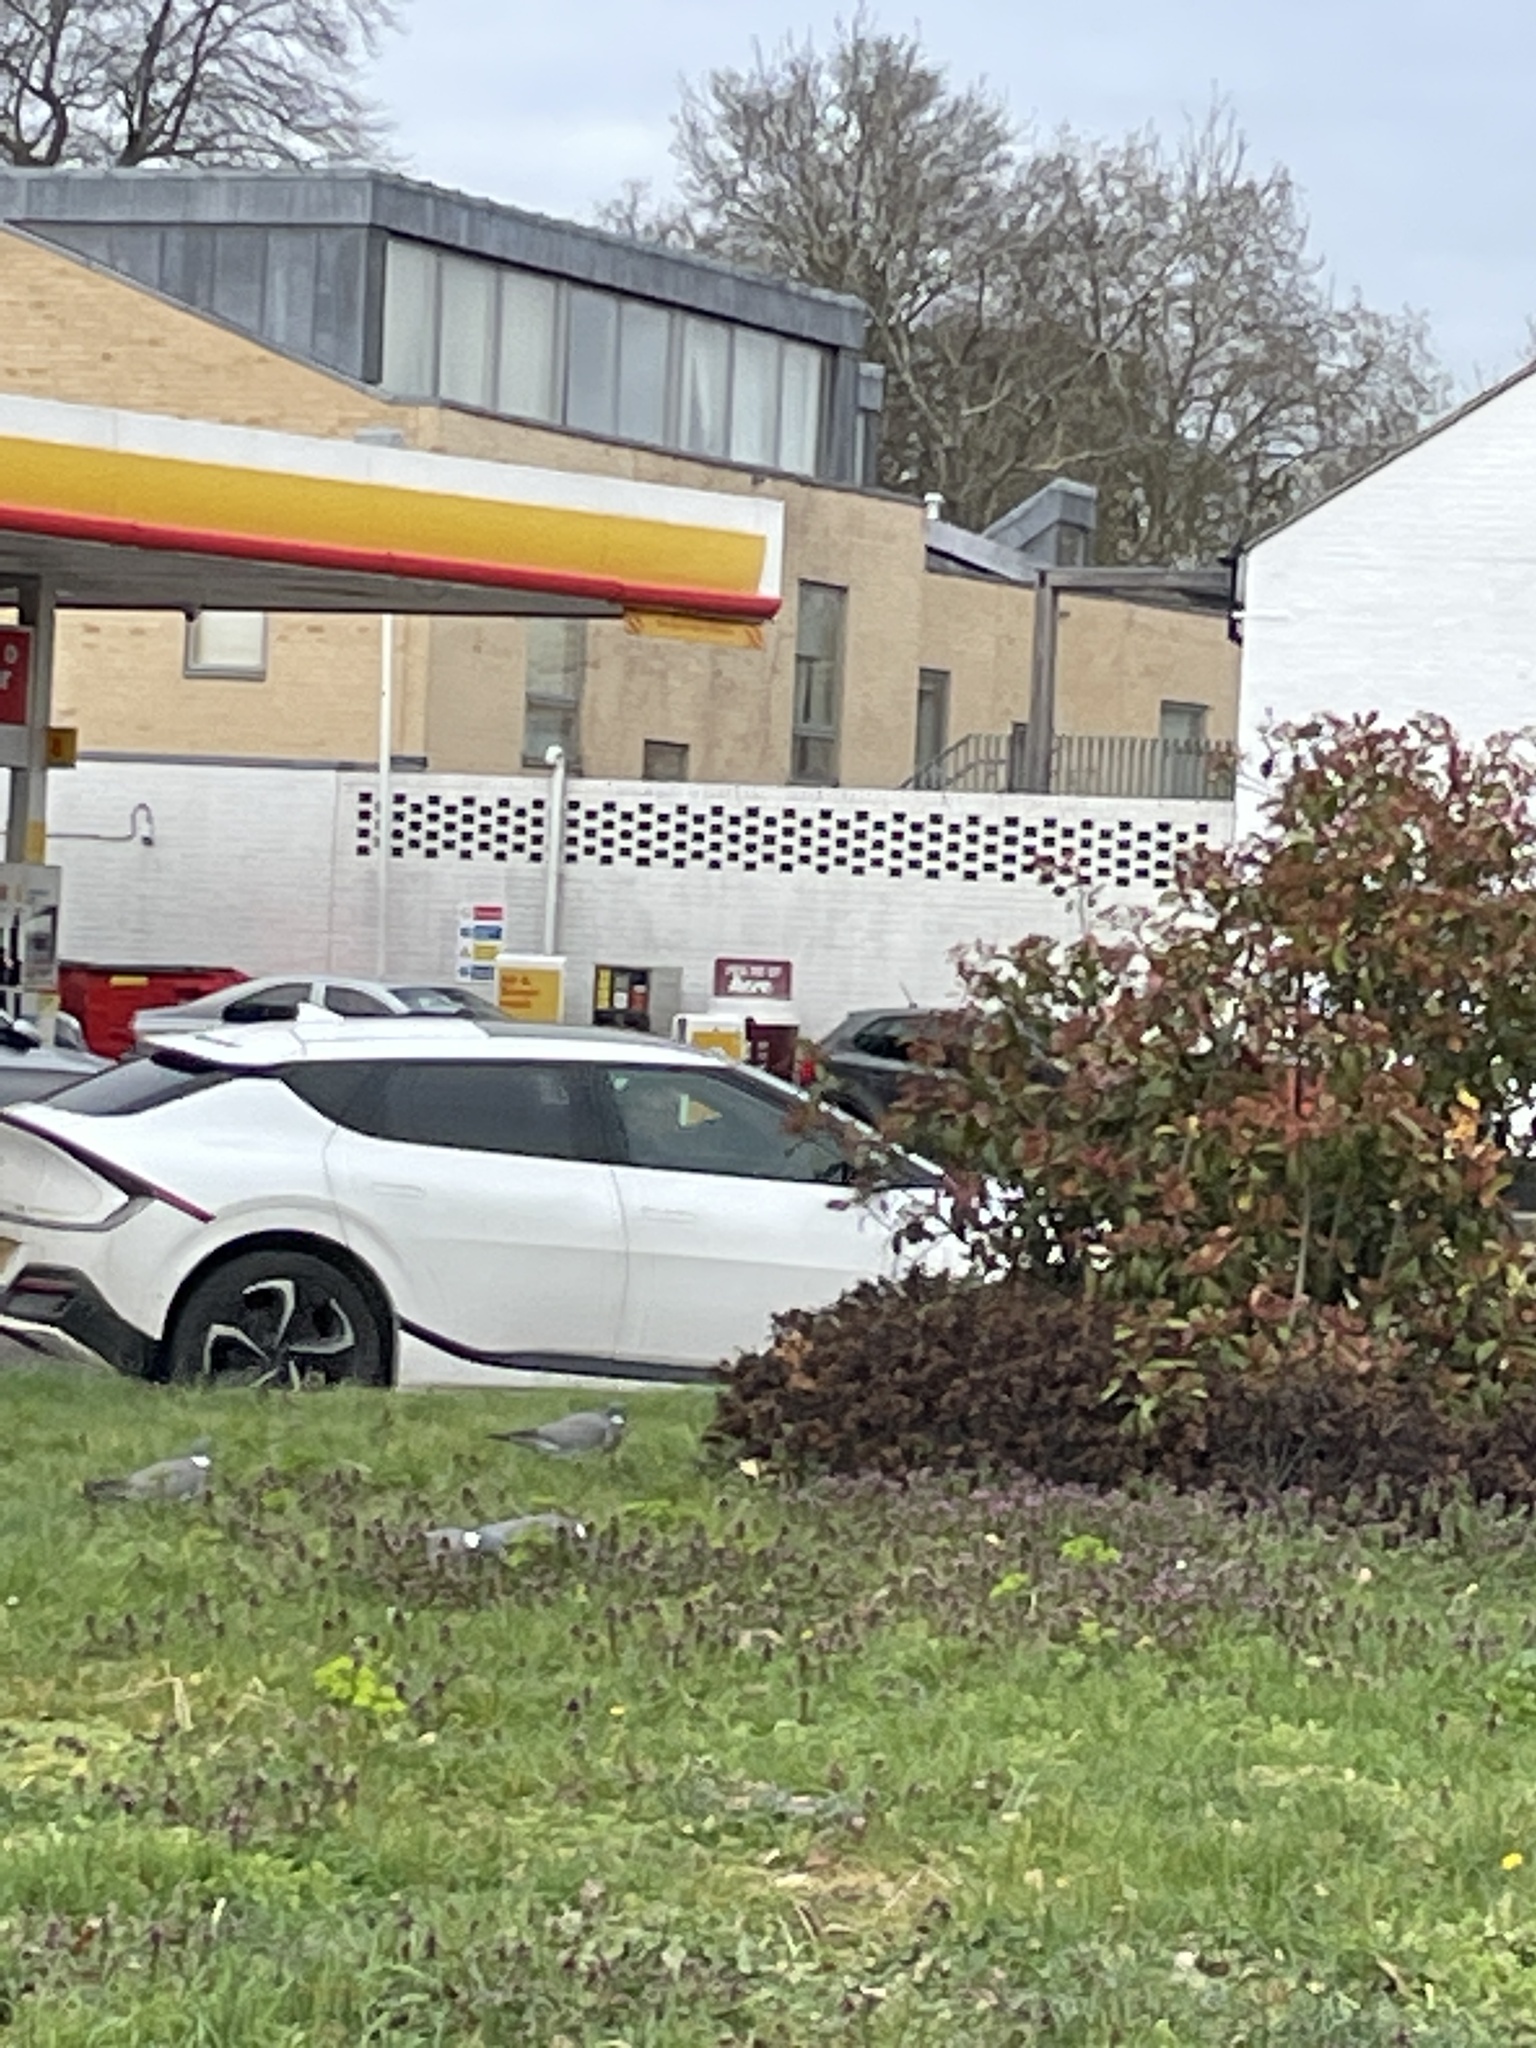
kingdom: Animalia
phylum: Chordata
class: Aves
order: Columbiformes
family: Columbidae
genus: Columba
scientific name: Columba palumbus
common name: Common wood pigeon
